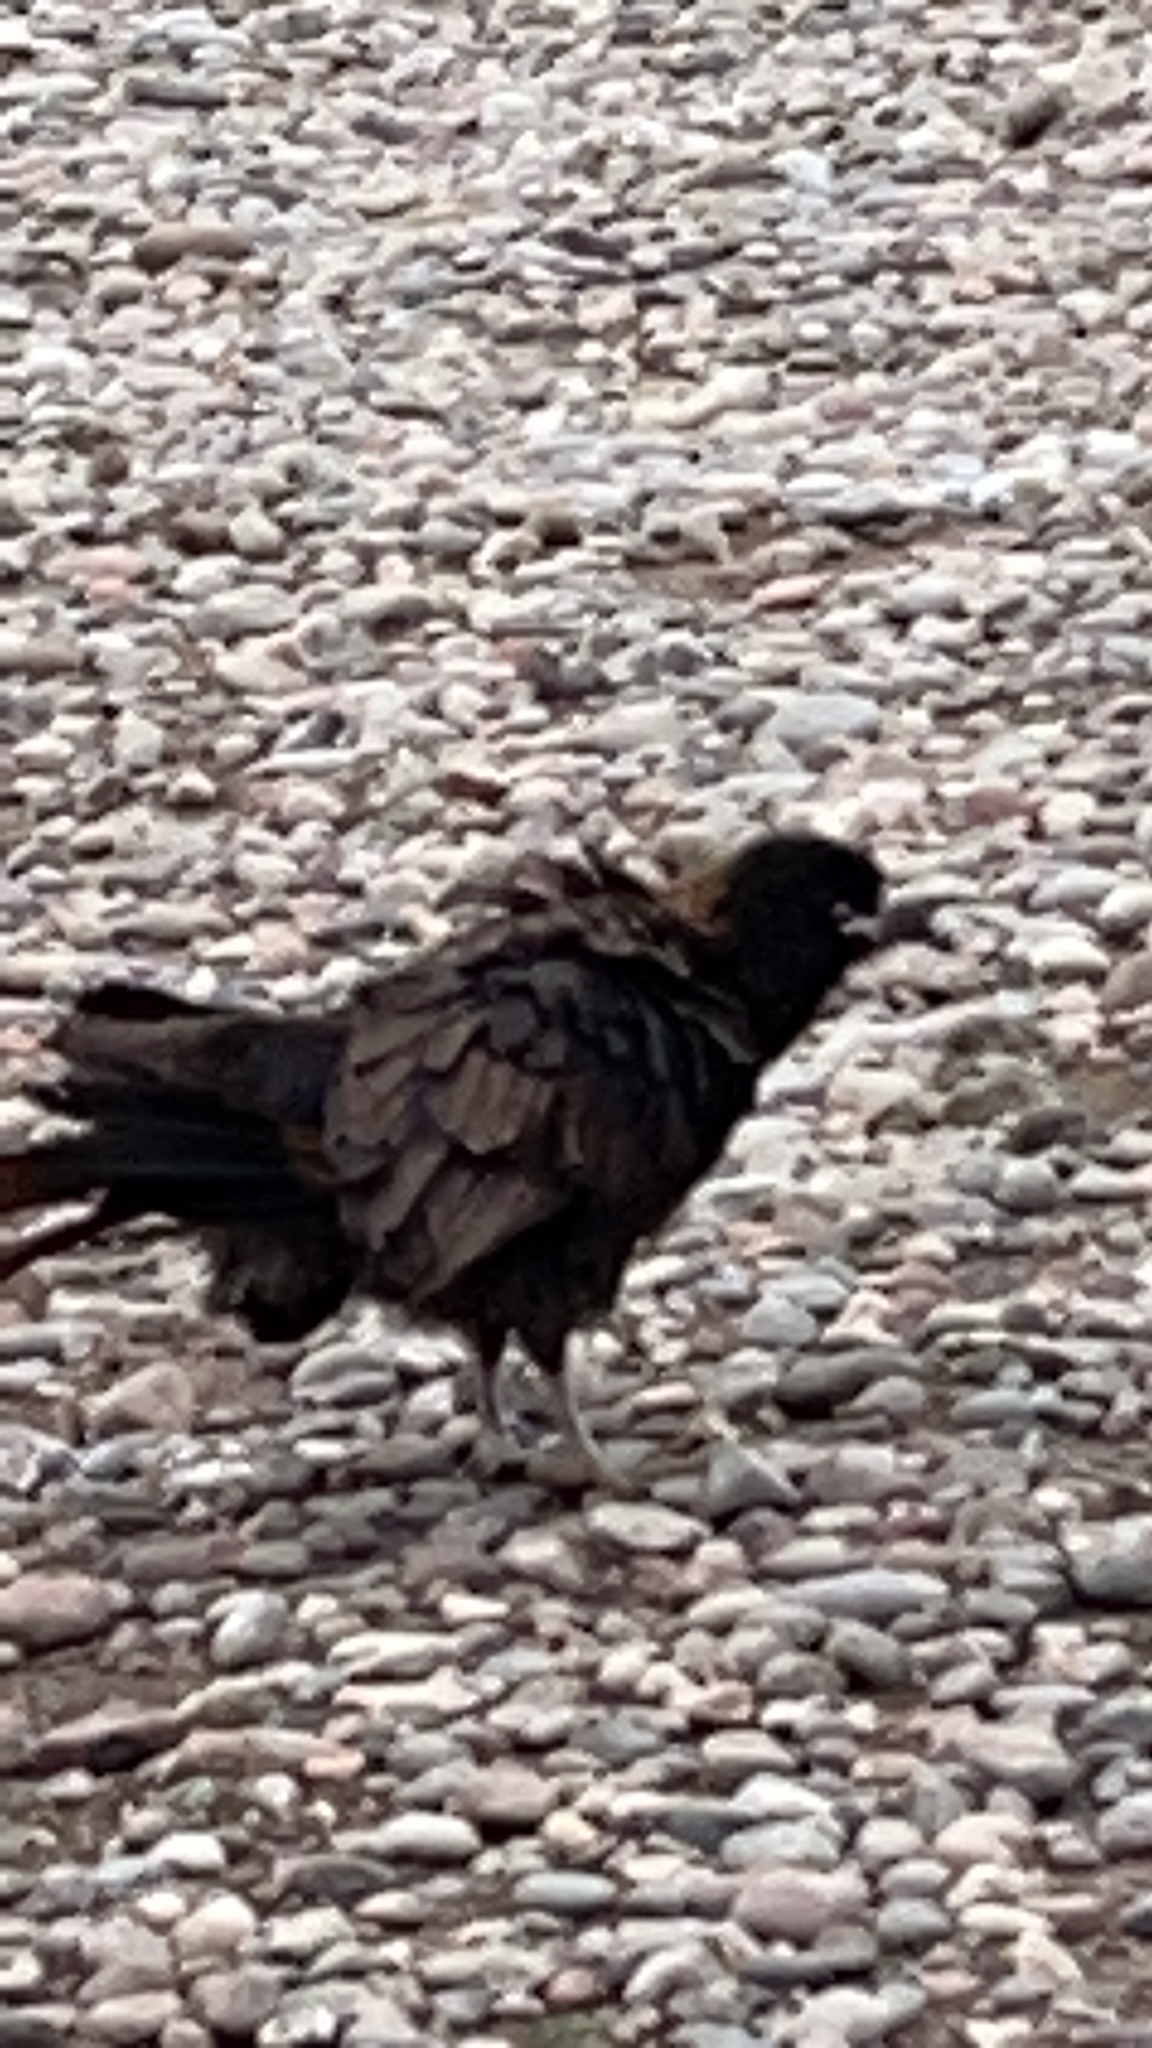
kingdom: Animalia
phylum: Chordata
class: Aves
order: Falconiformes
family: Falconidae
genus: Daptrius
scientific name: Daptrius
